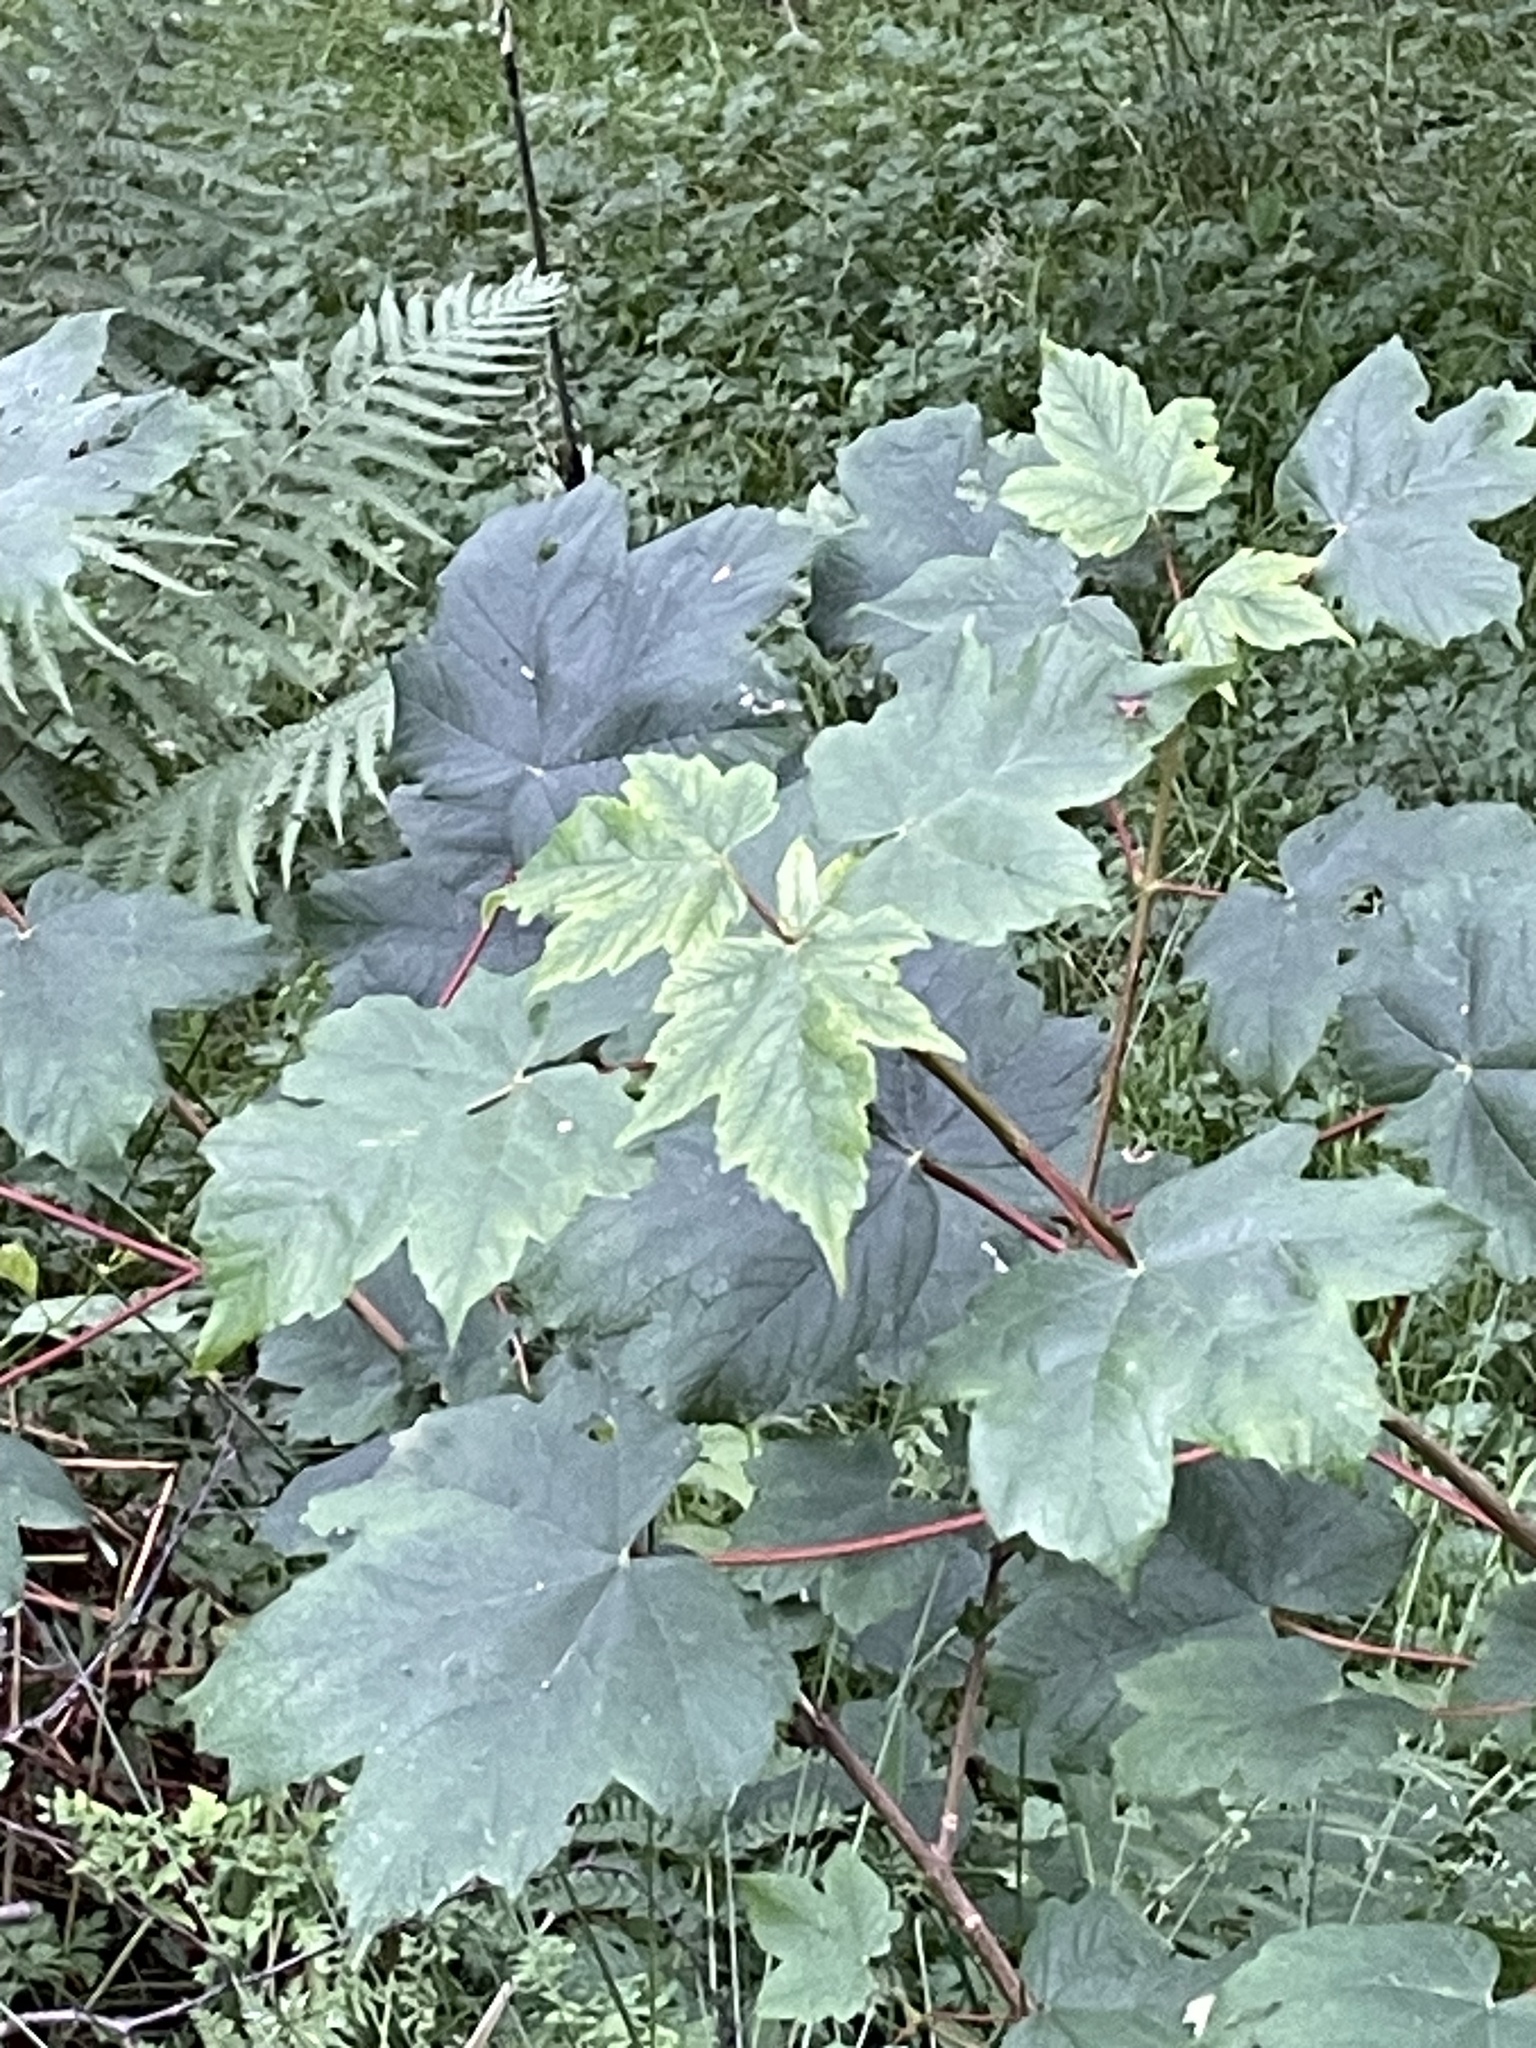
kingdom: Plantae
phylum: Tracheophyta
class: Magnoliopsida
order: Sapindales
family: Sapindaceae
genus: Acer
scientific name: Acer pseudoplatanus
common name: Sycamore
